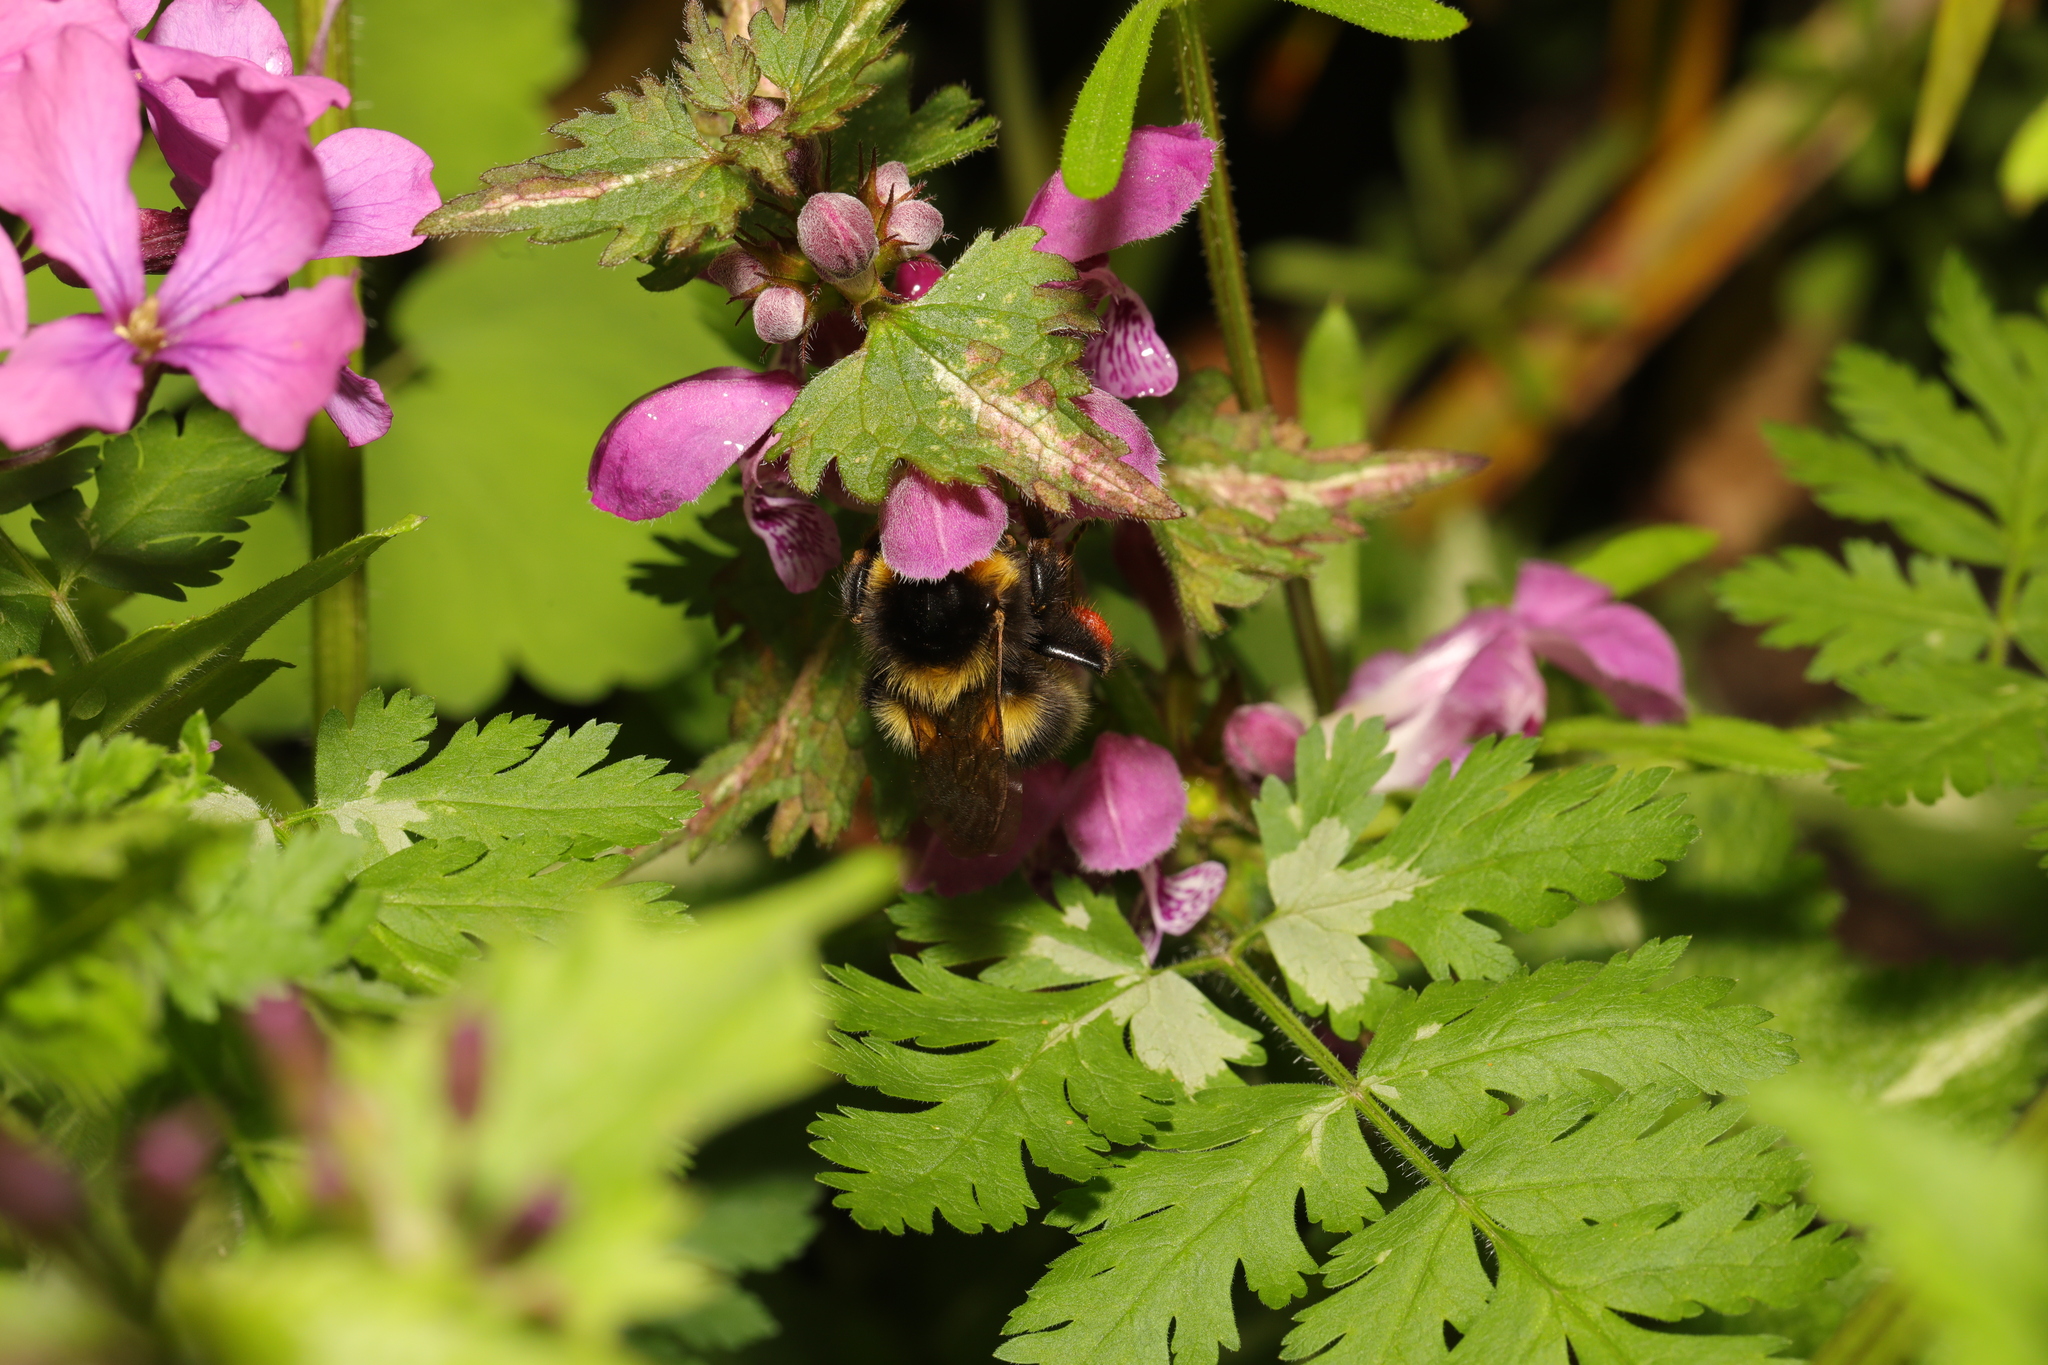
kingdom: Animalia
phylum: Arthropoda
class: Insecta
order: Hymenoptera
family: Apidae
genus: Bombus
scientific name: Bombus pratorum
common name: Early humble-bee
